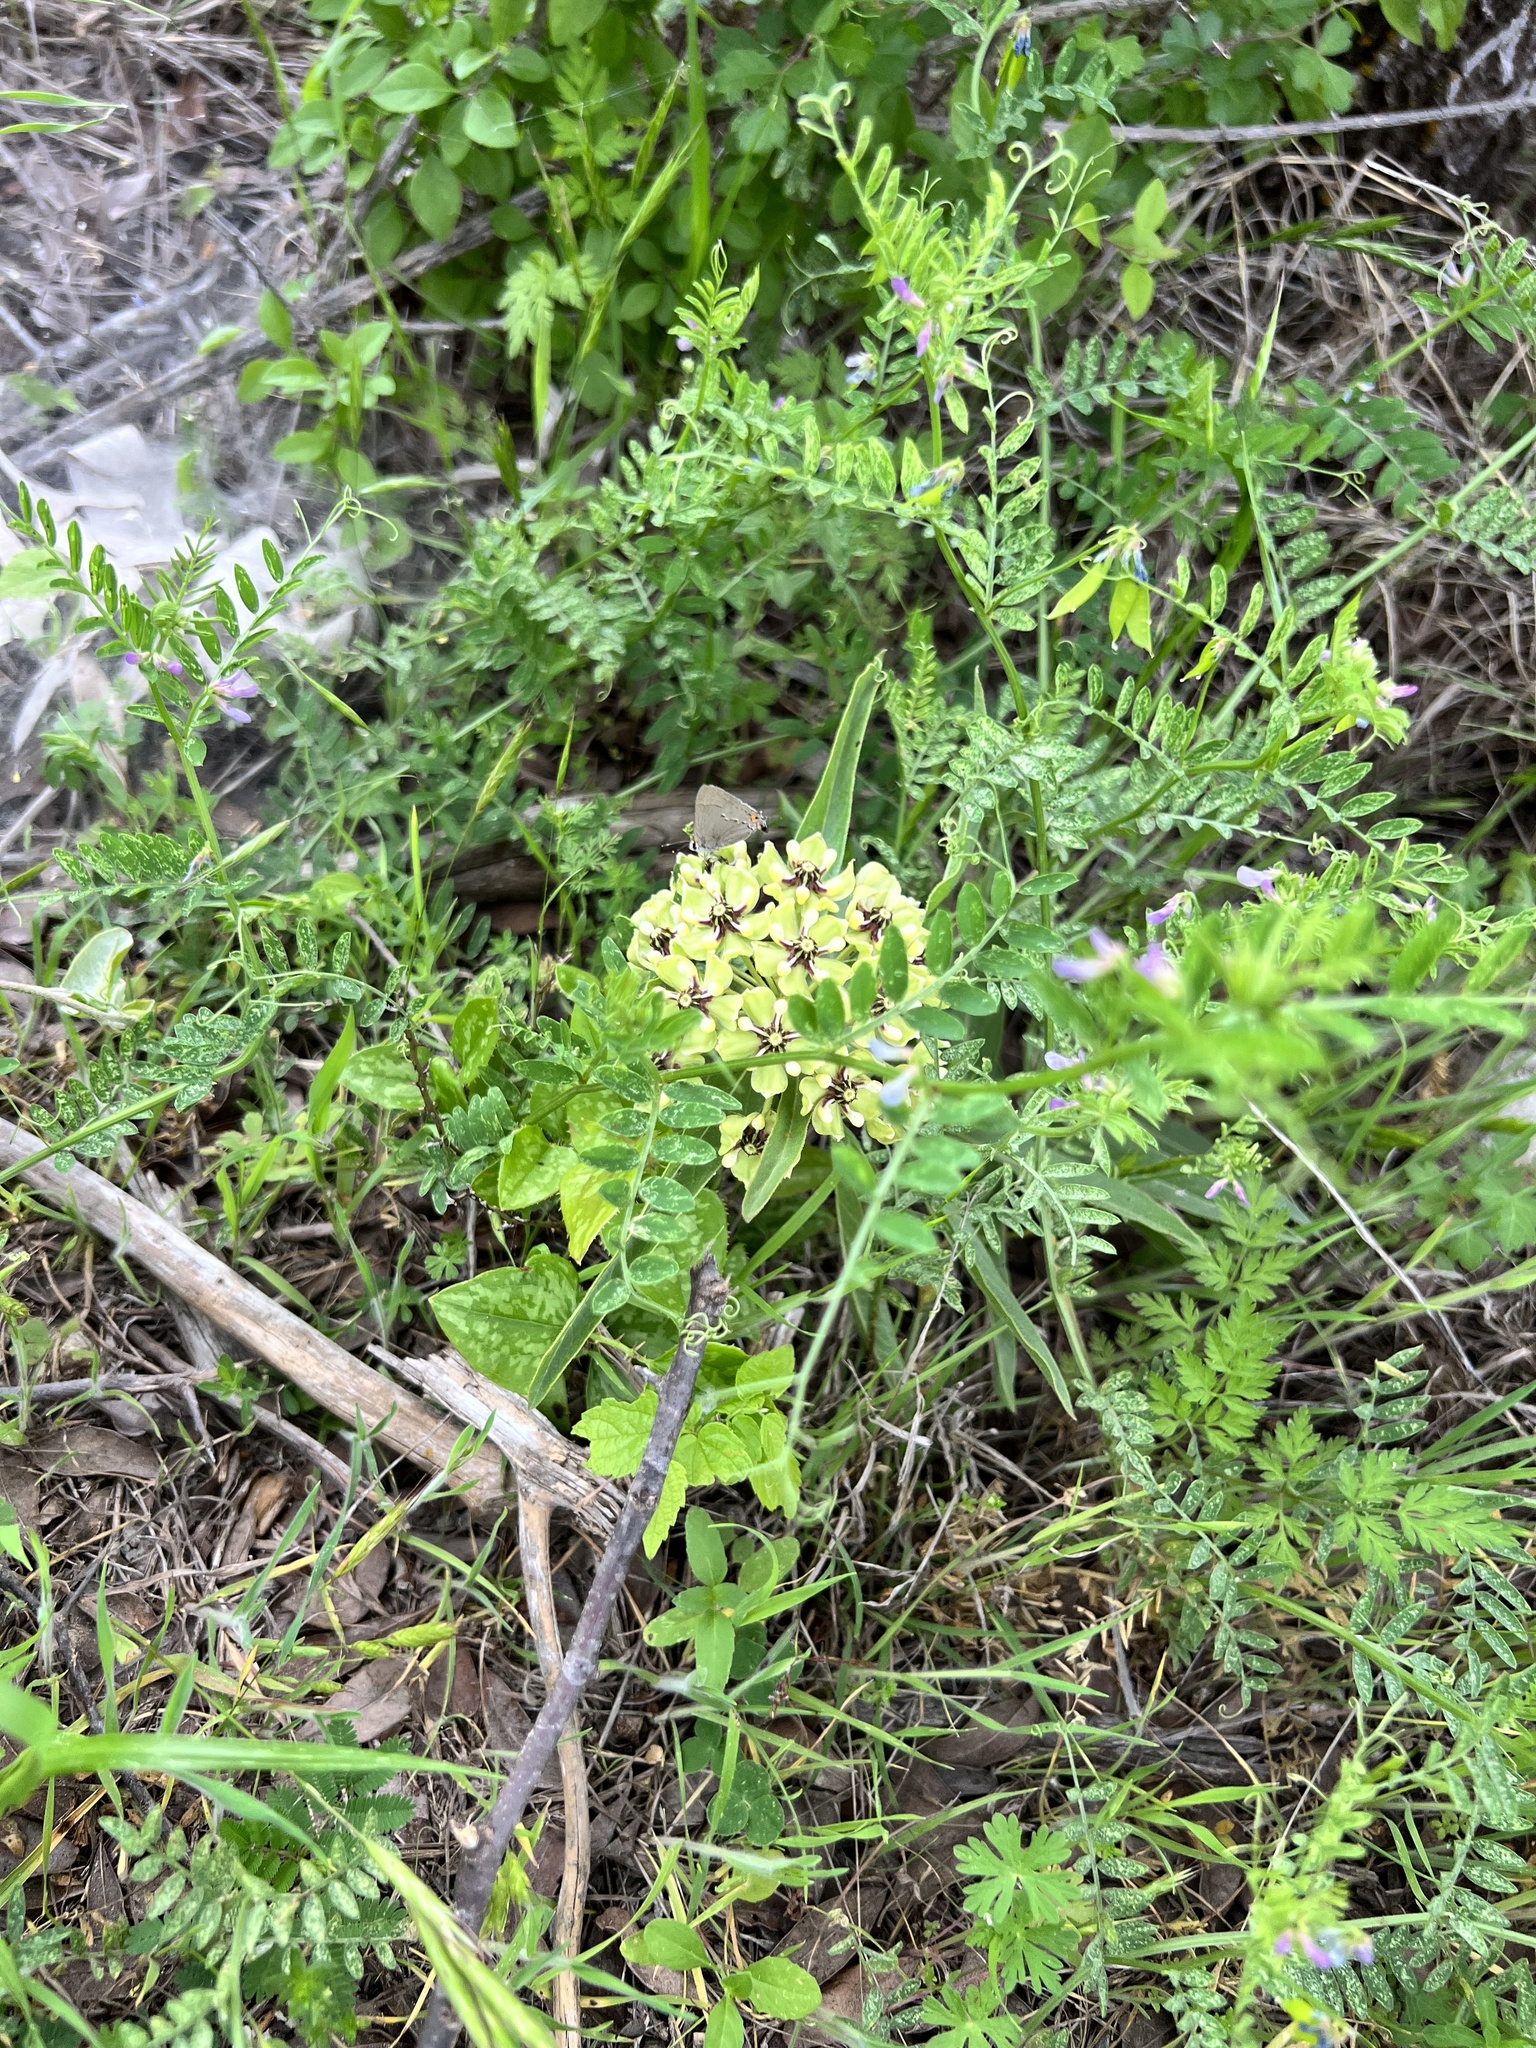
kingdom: Plantae
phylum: Tracheophyta
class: Magnoliopsida
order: Gentianales
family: Apocynaceae
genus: Asclepias
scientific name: Asclepias asperula
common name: Antelope horns
